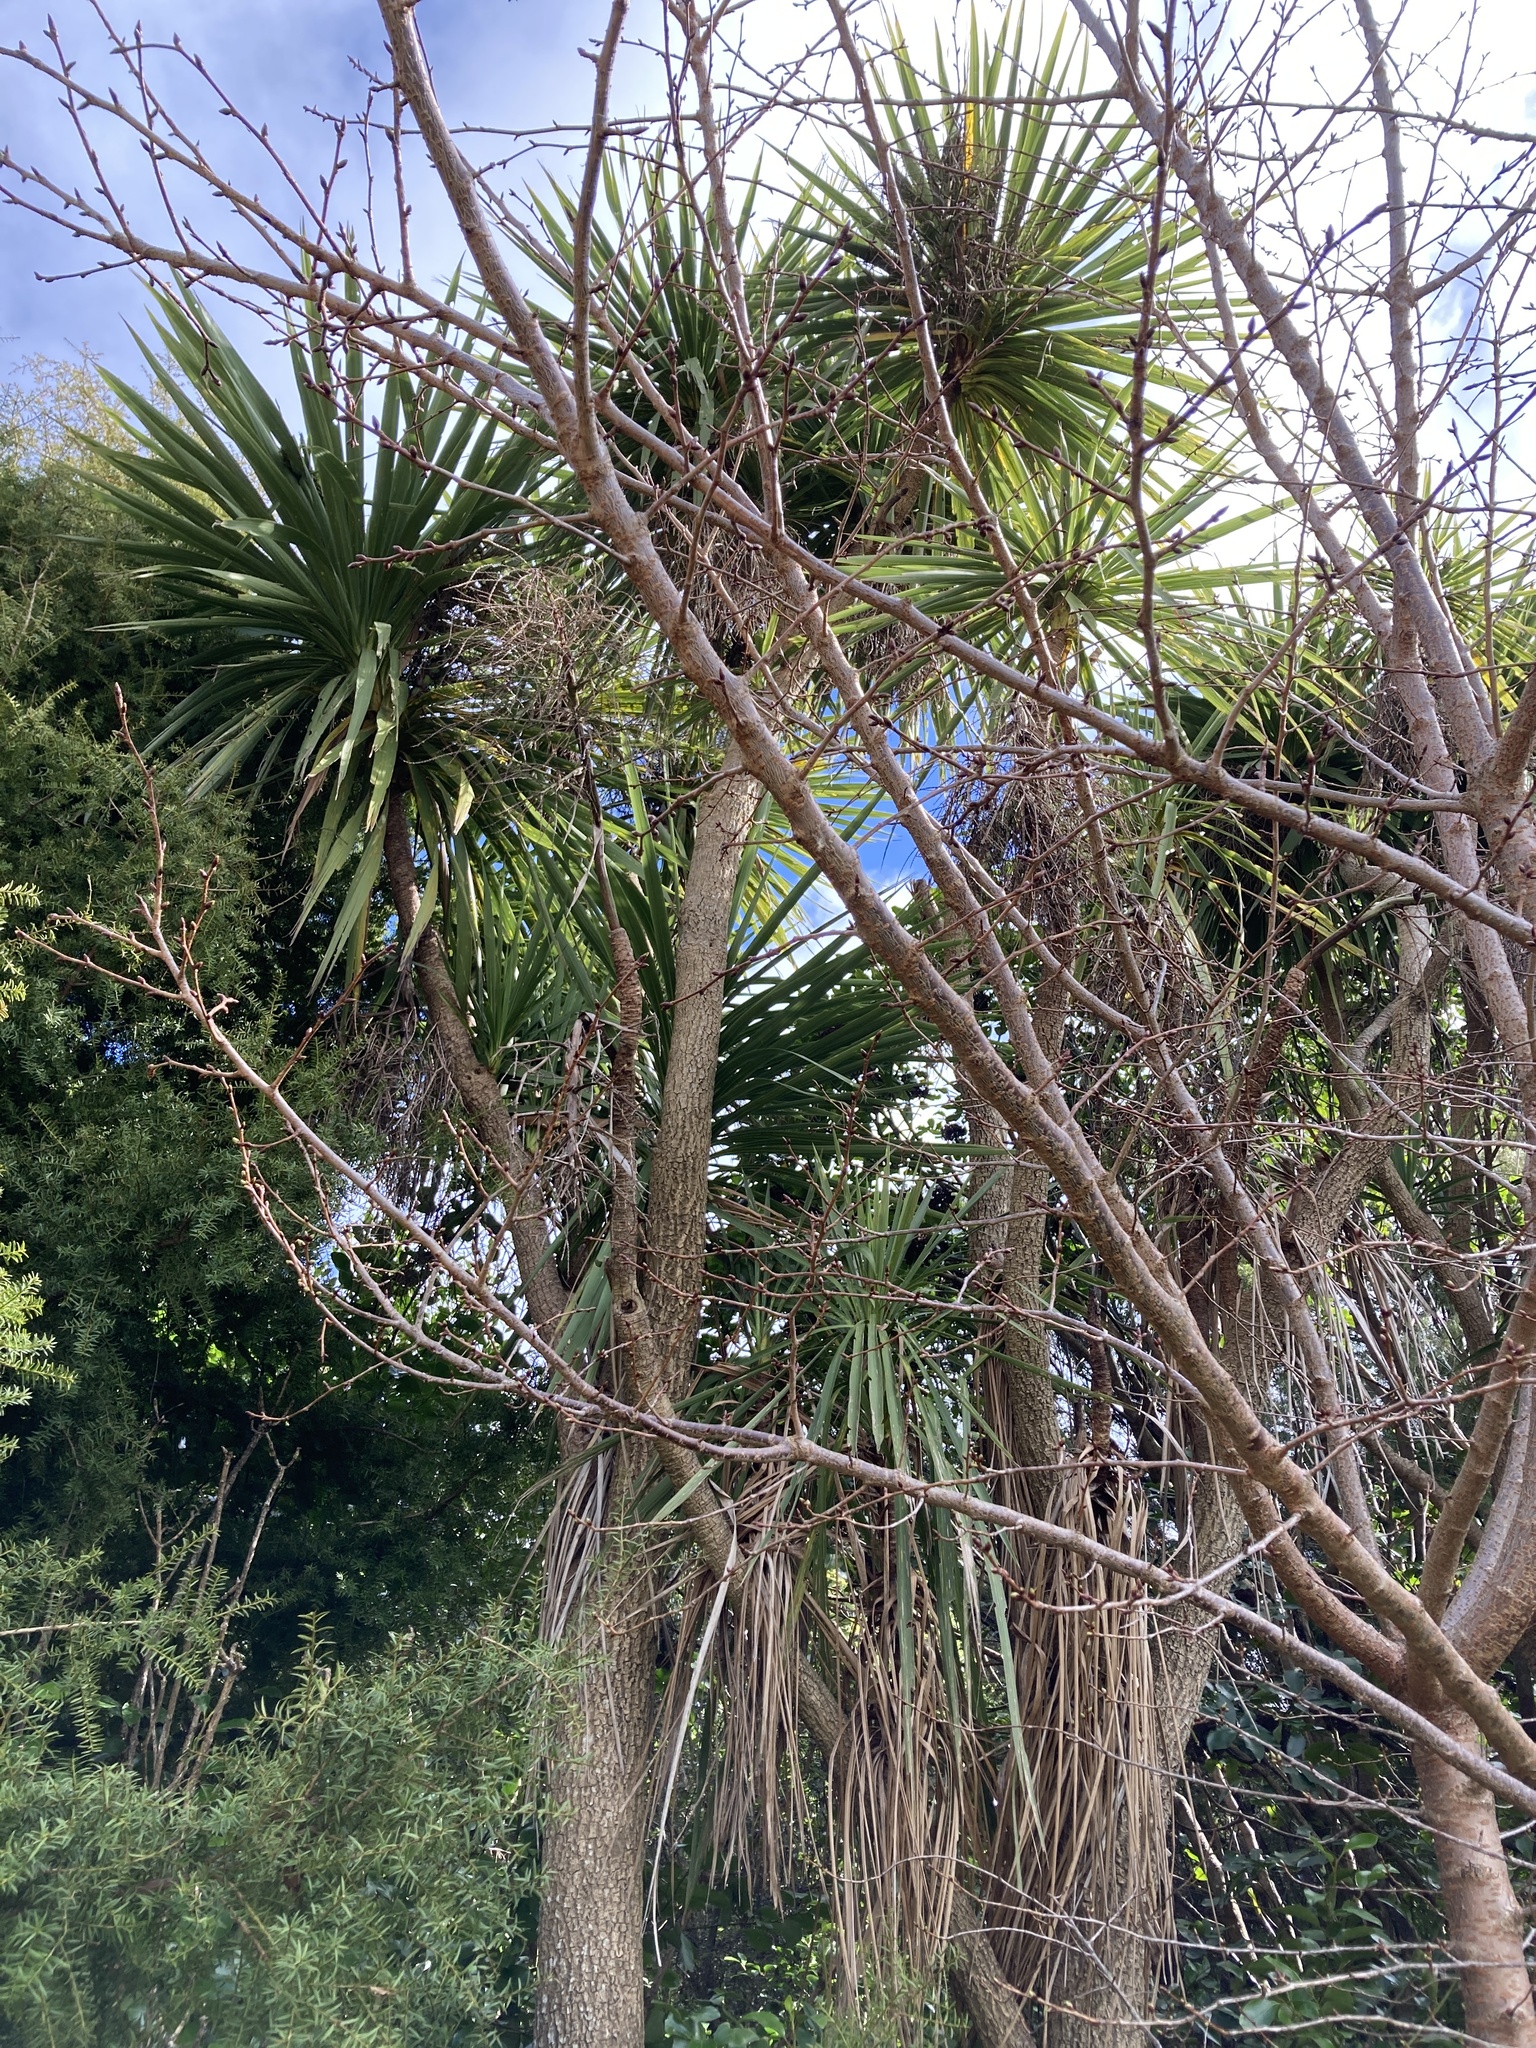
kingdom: Plantae
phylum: Tracheophyta
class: Liliopsida
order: Asparagales
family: Asparagaceae
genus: Cordyline
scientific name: Cordyline australis
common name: Cabbage-palm
